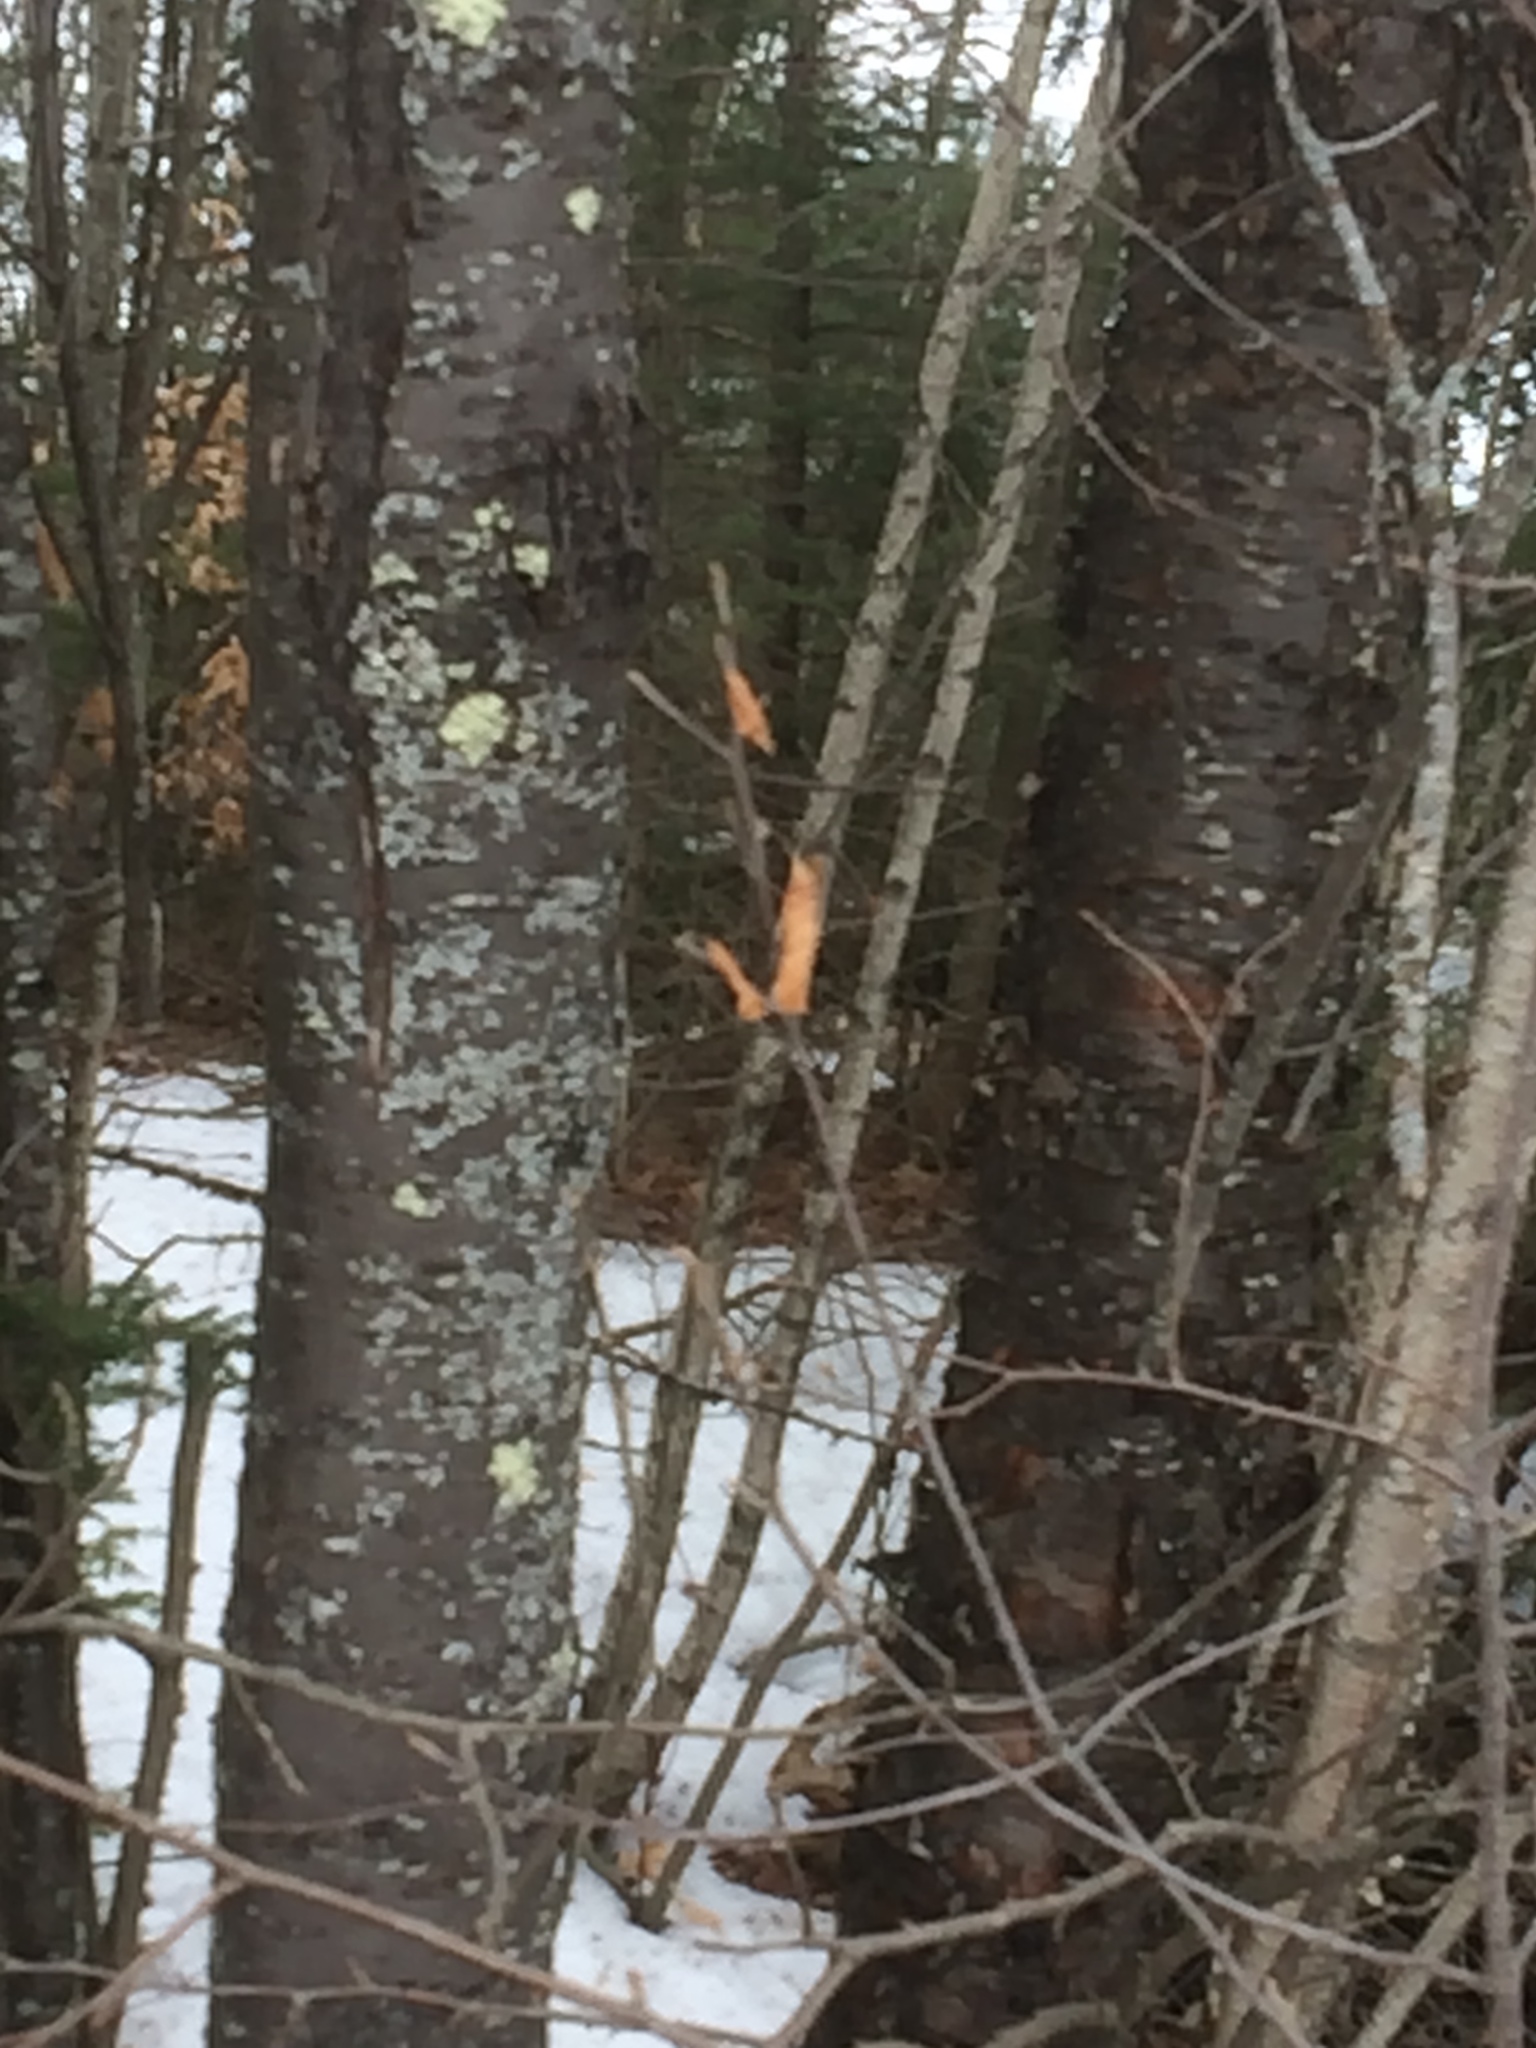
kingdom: Plantae
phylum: Tracheophyta
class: Magnoliopsida
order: Rosales
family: Rosaceae
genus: Prunus
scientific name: Prunus pensylvanica
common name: Pin cherry
